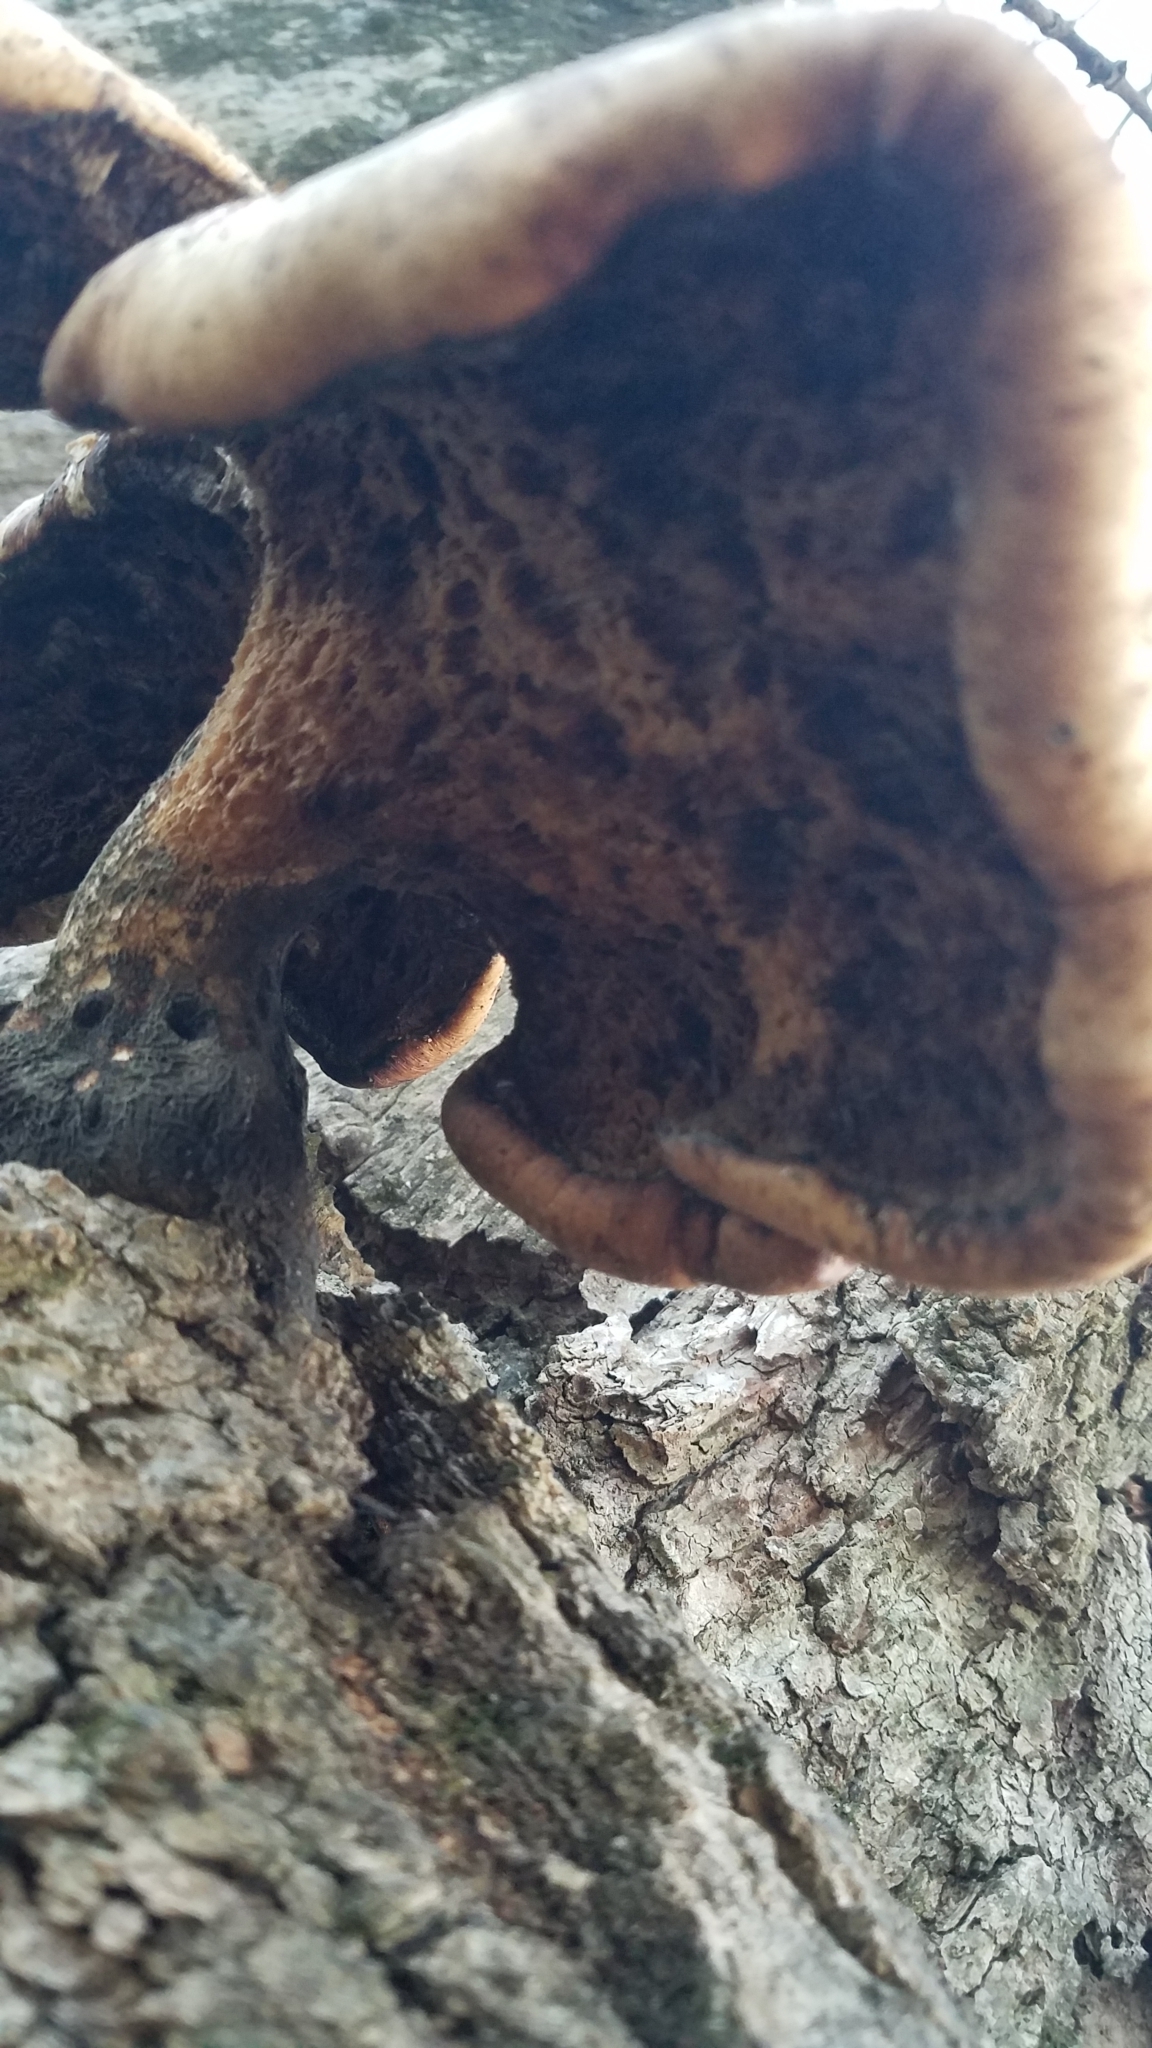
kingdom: Fungi
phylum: Basidiomycota
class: Agaricomycetes
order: Polyporales
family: Polyporaceae
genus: Cerioporus
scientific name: Cerioporus squamosus
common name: Dryad's saddle
